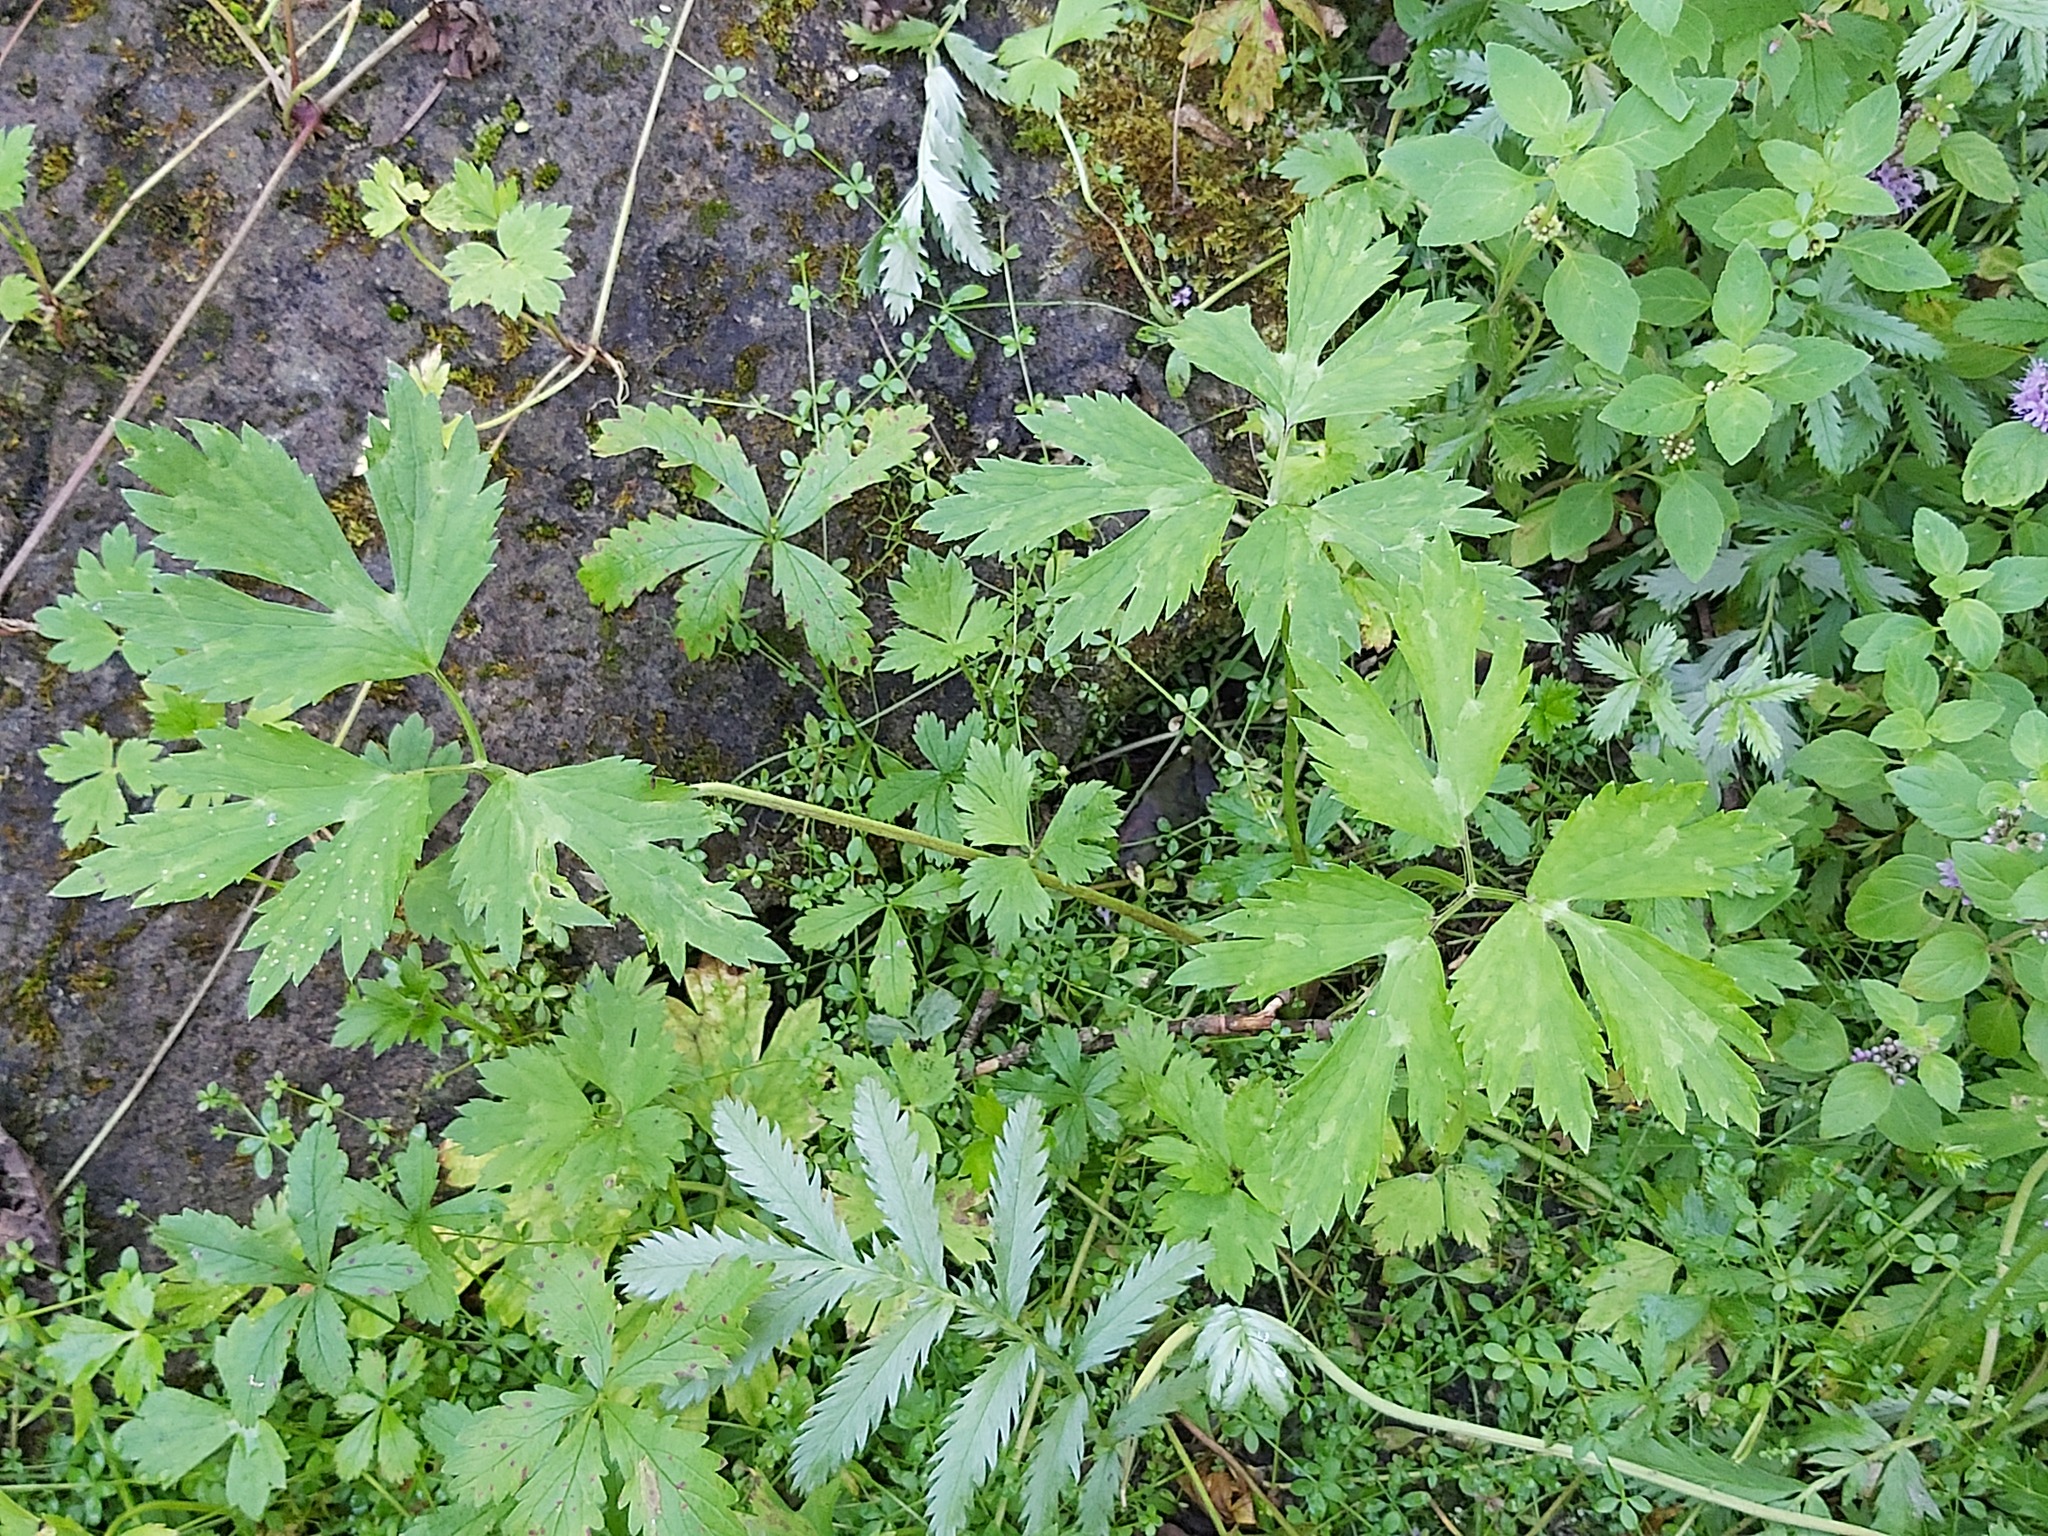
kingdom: Plantae
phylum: Tracheophyta
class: Magnoliopsida
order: Ranunculales
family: Ranunculaceae
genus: Ranunculus
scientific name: Ranunculus repens
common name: Creeping buttercup
